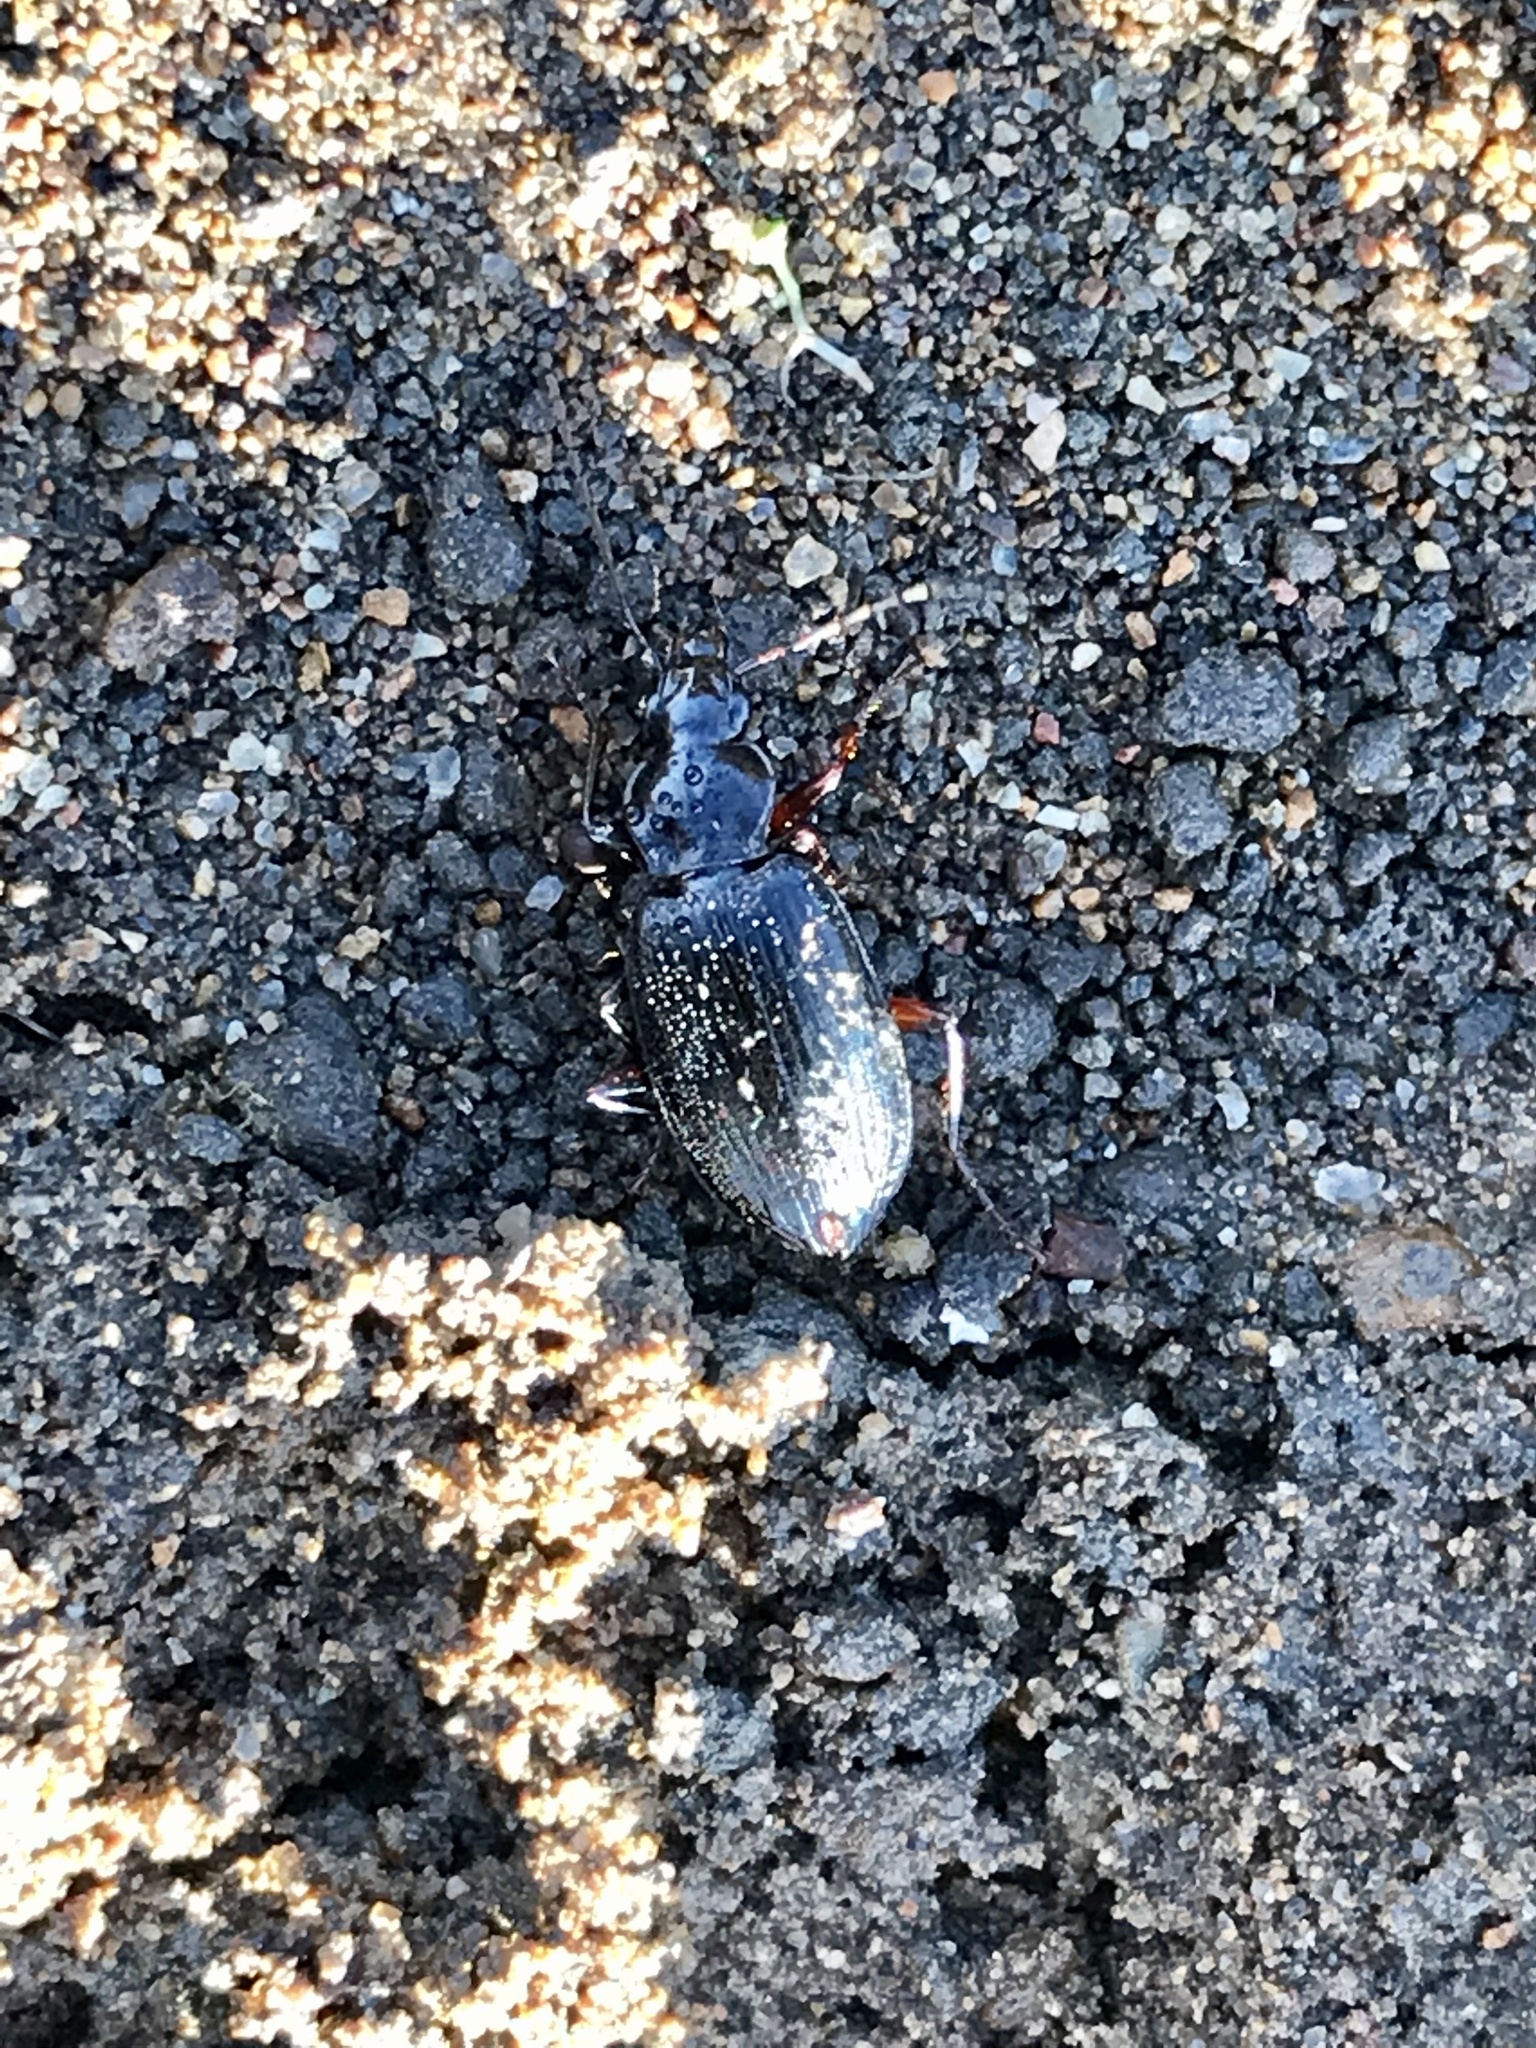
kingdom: Animalia
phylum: Arthropoda
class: Insecta
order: Coleoptera
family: Carabidae
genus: Platynus
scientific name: Platynus brunneomarginatus
